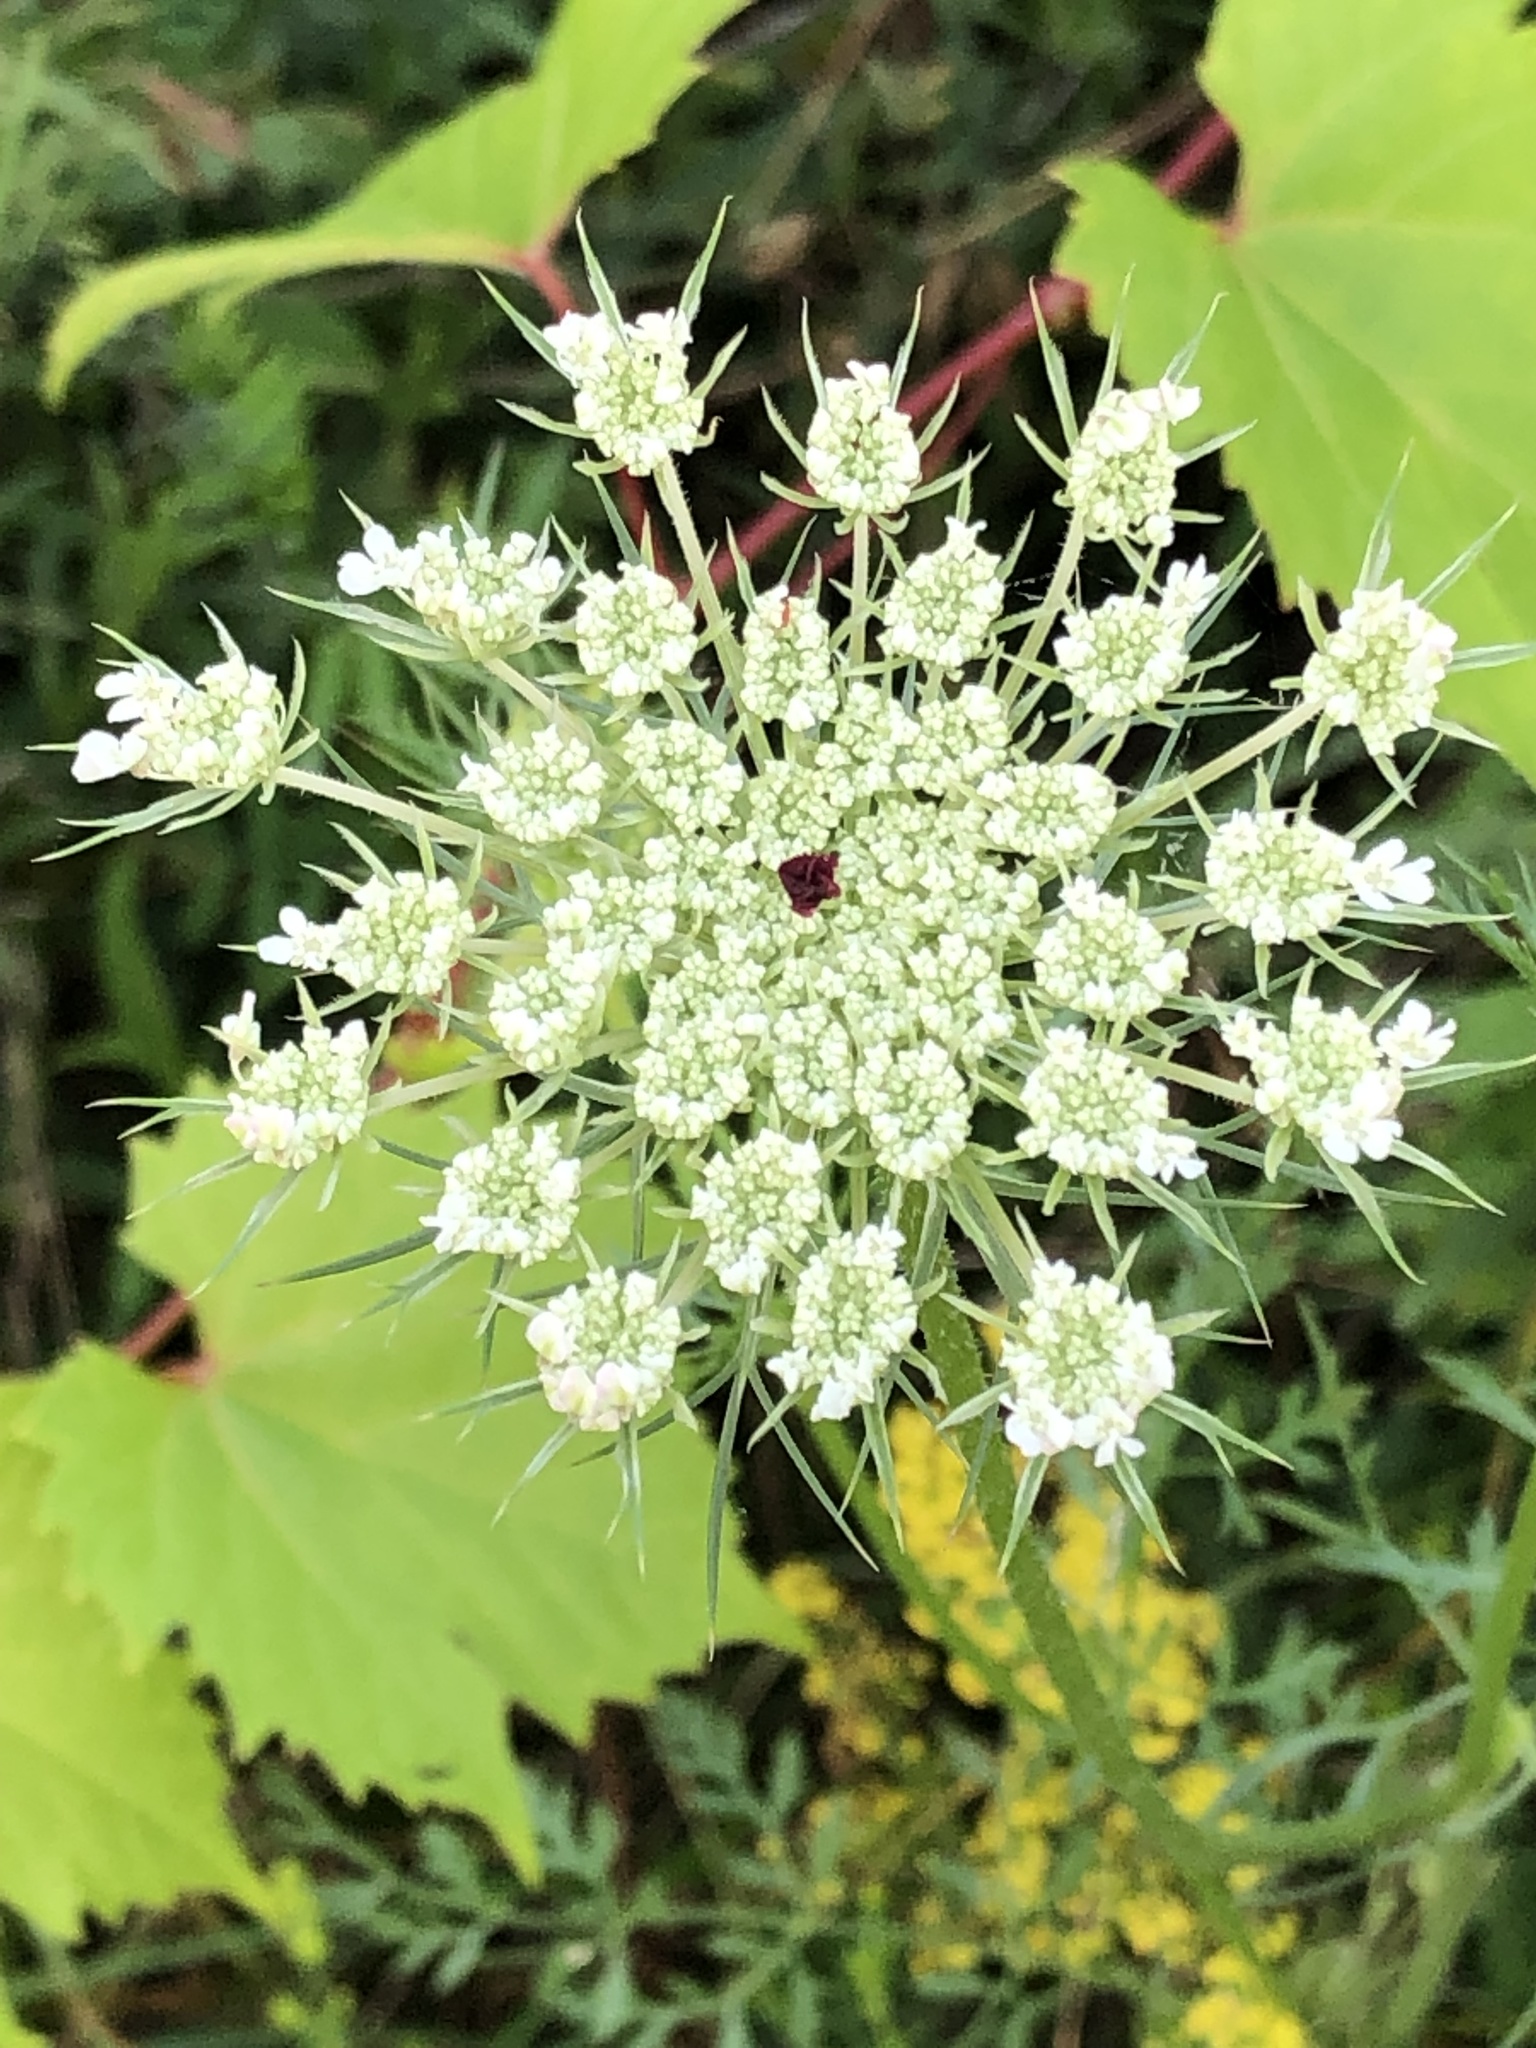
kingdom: Plantae
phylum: Tracheophyta
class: Magnoliopsida
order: Apiales
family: Apiaceae
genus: Daucus
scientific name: Daucus carota
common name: Wild carrot
